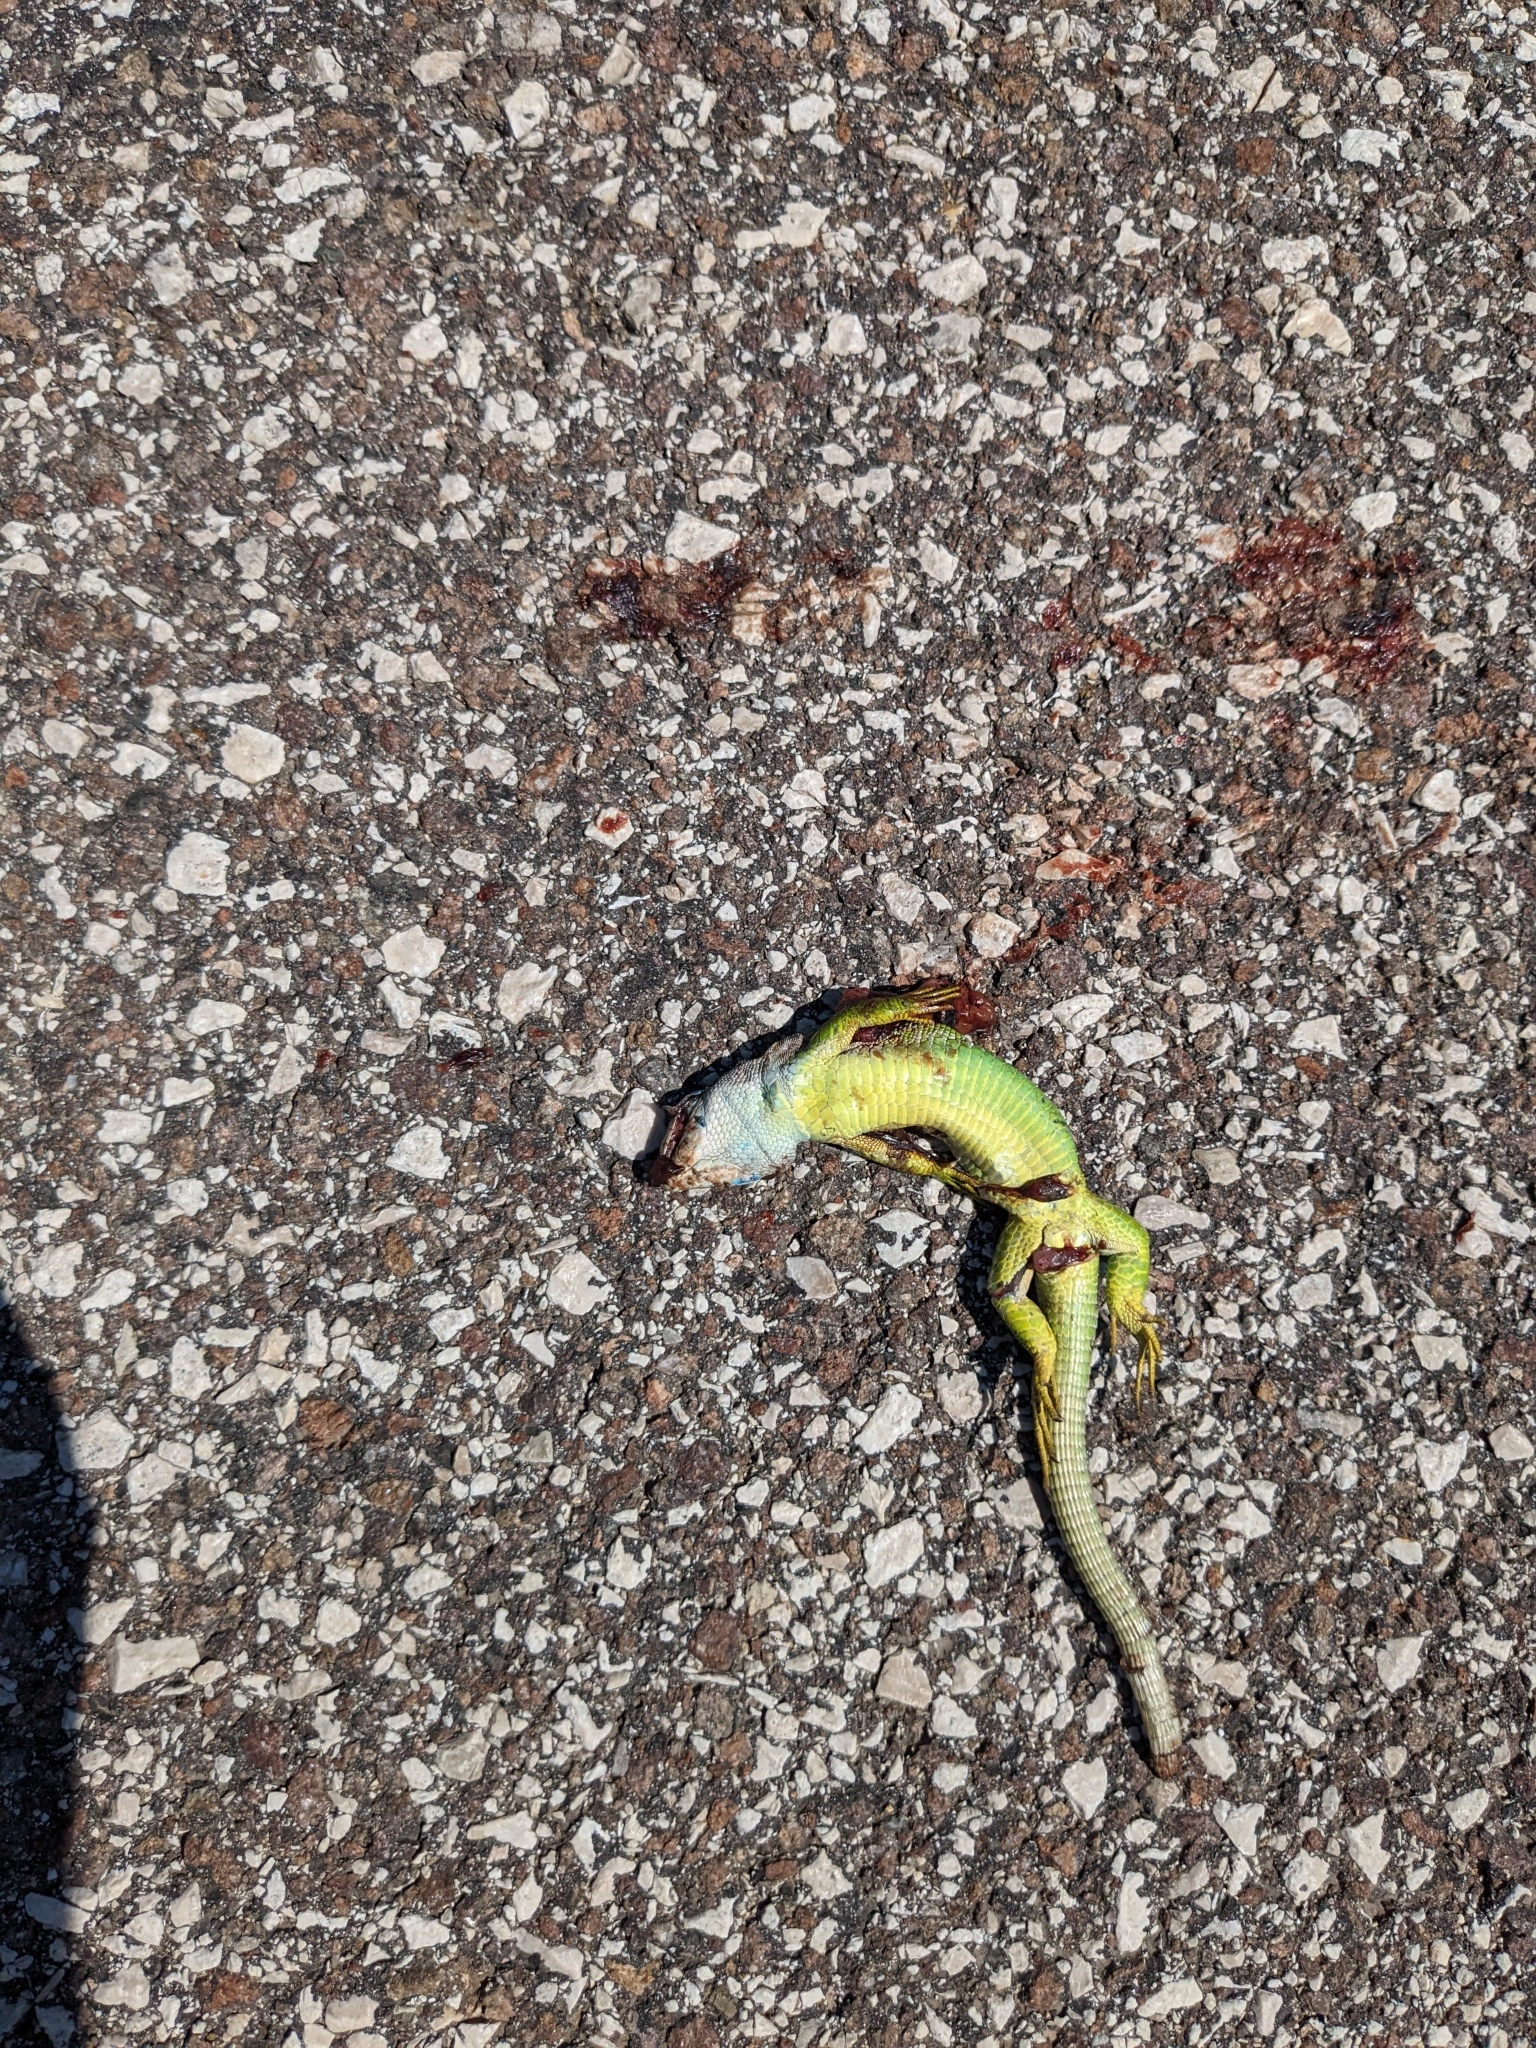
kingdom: Animalia
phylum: Chordata
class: Squamata
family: Lacertidae
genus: Lacerta
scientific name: Lacerta bilineata
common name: Western green lizard
